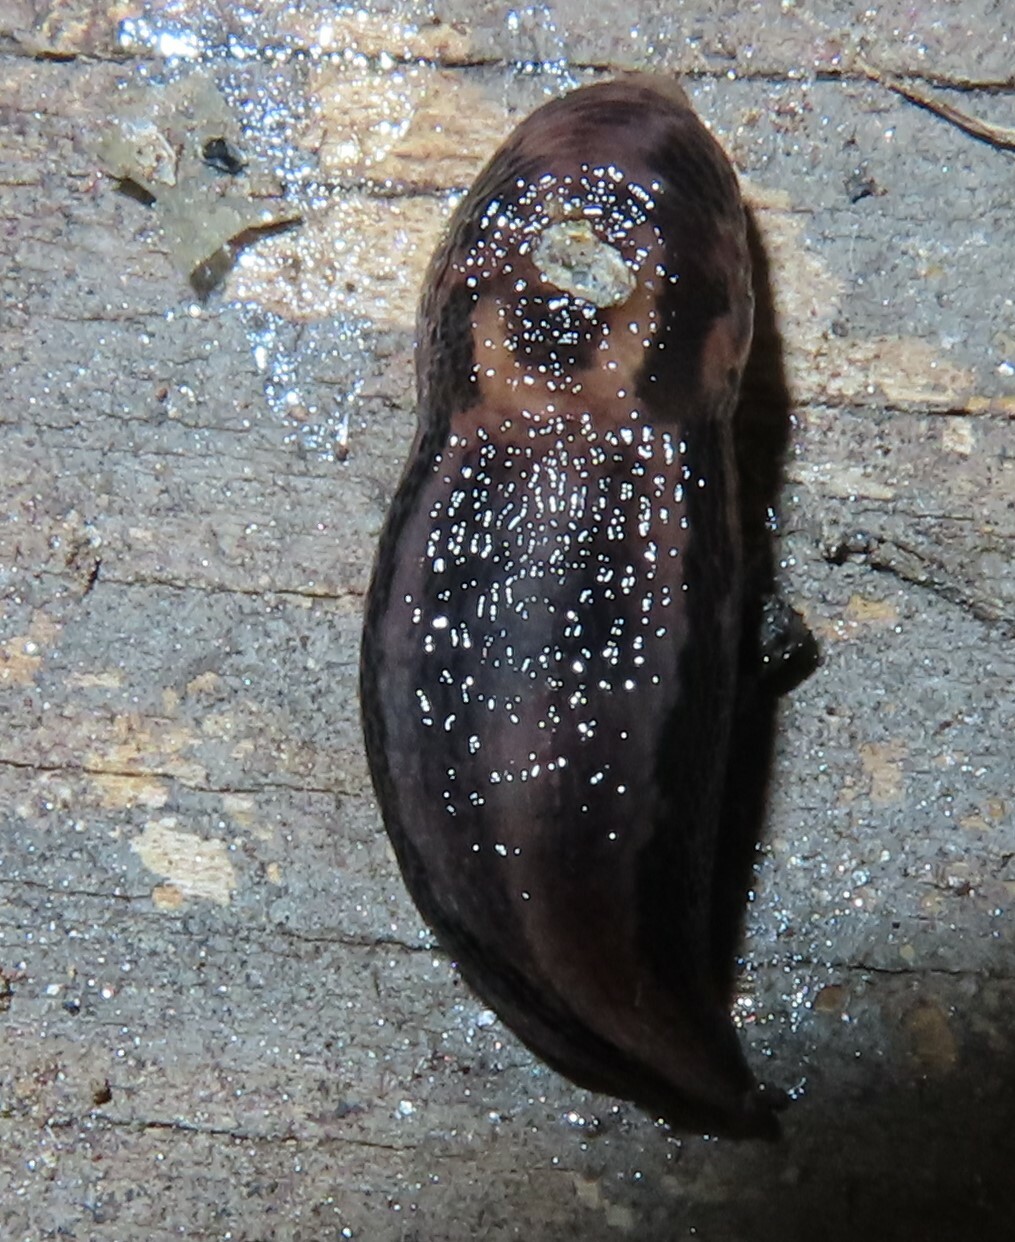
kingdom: Animalia
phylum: Mollusca
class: Gastropoda
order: Stylommatophora
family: Limacidae
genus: Limax
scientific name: Limax maximus
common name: Great grey slug
